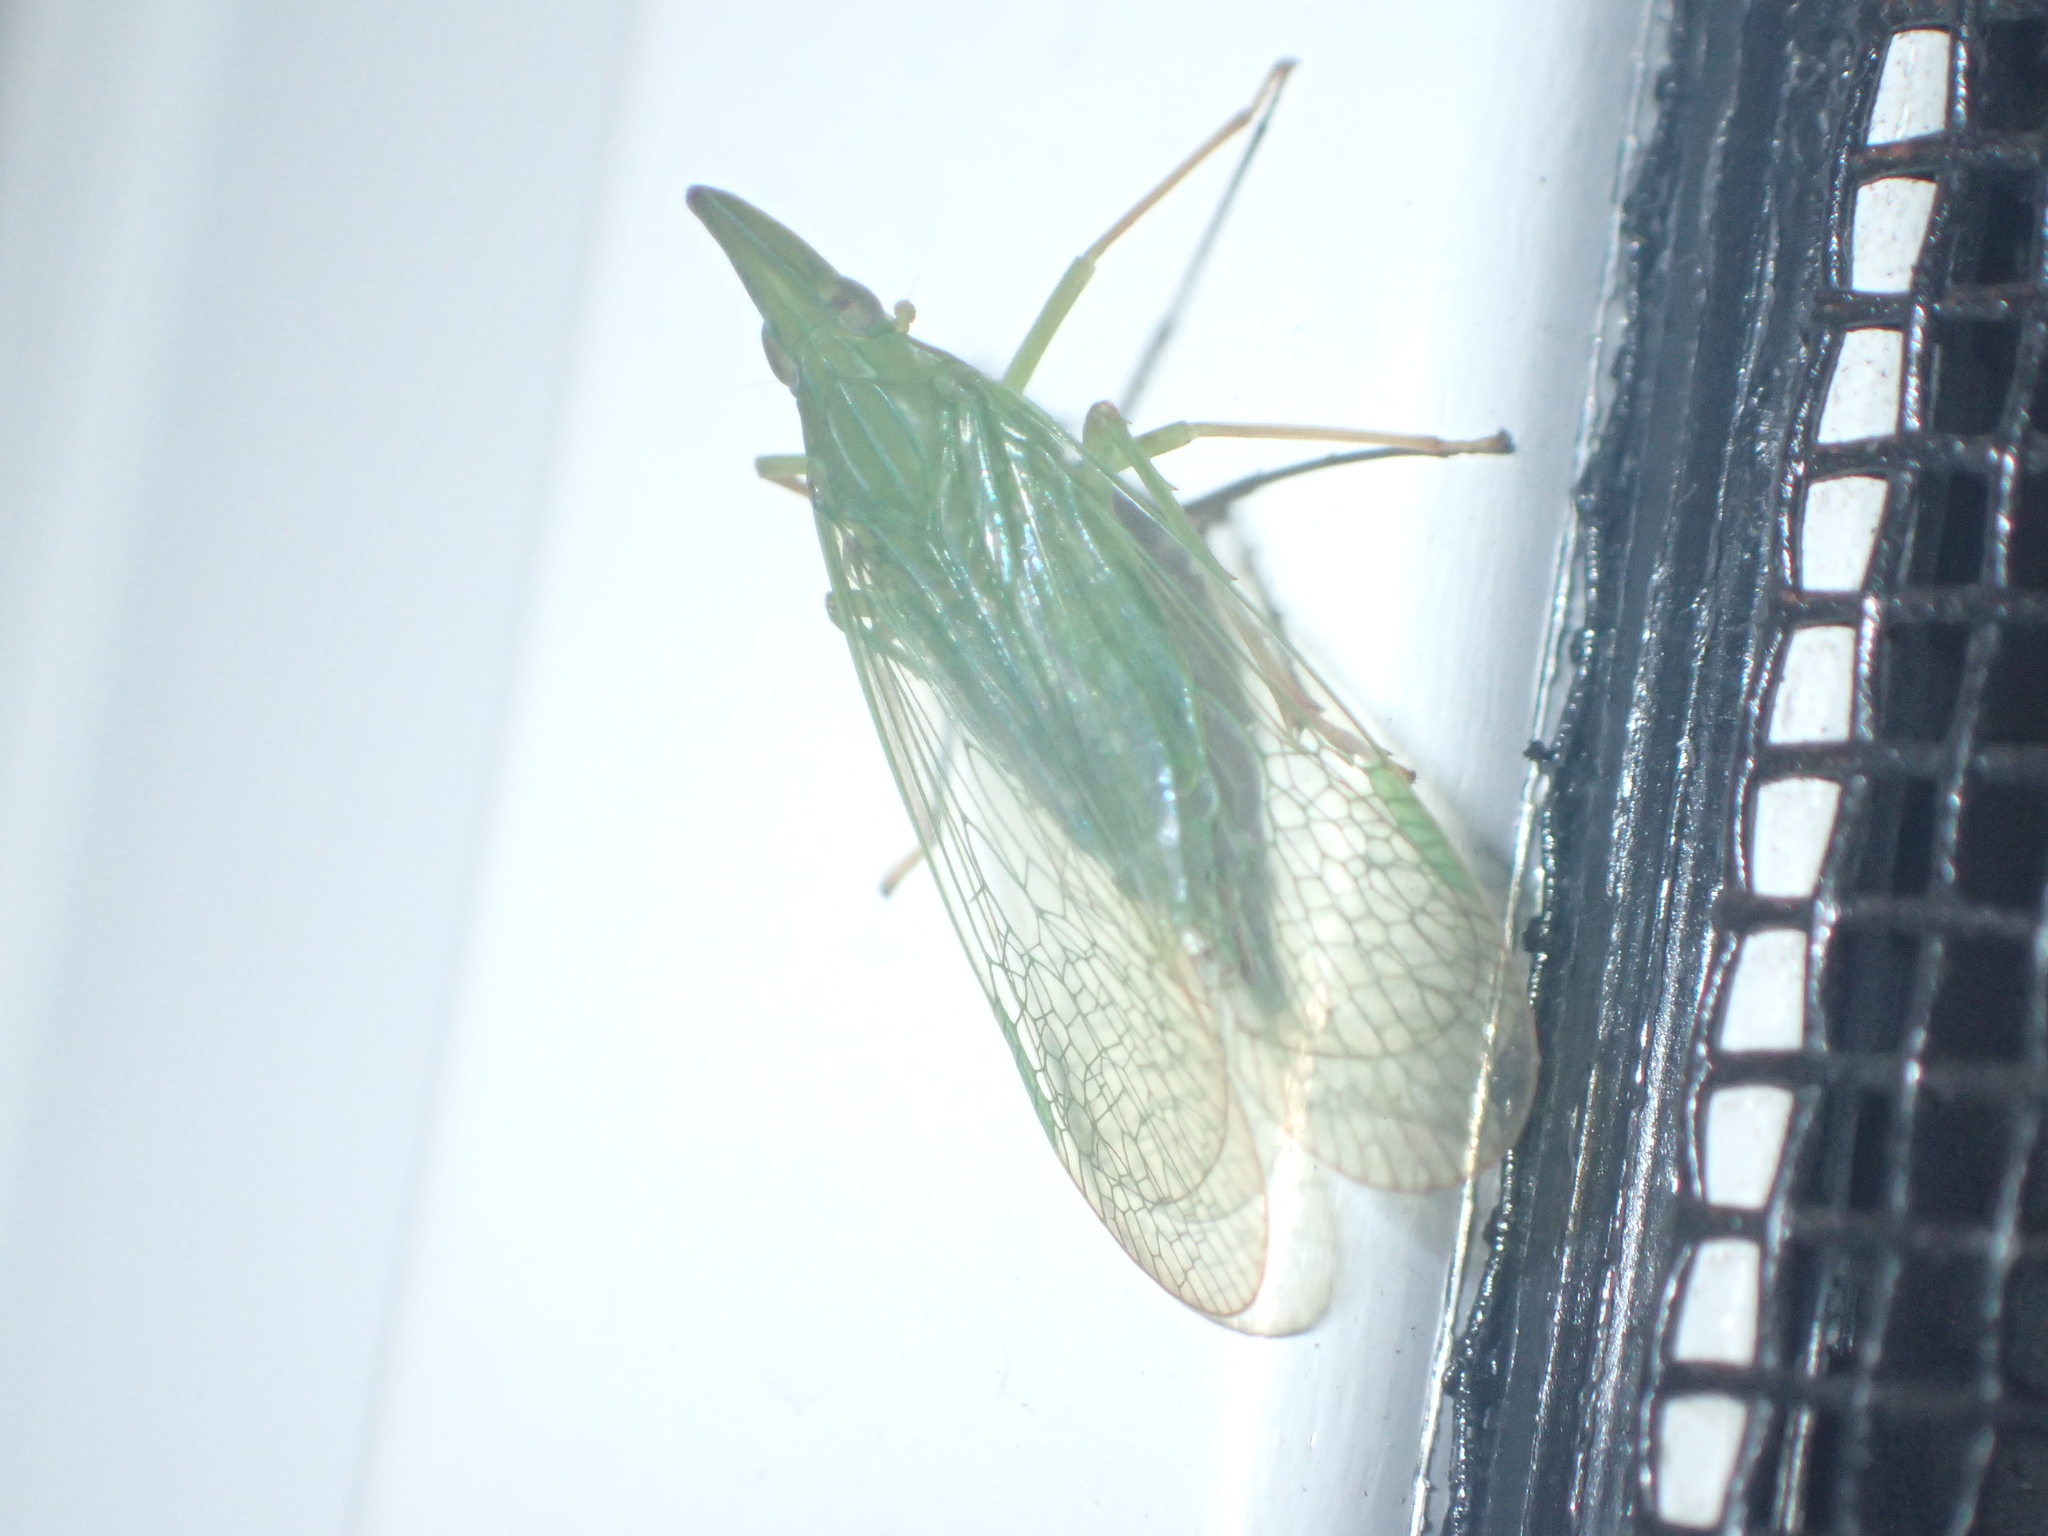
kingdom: Animalia
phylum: Arthropoda
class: Insecta
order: Hemiptera
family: Dictyopharidae
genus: Rhynchomitra
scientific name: Rhynchomitra microrhina
